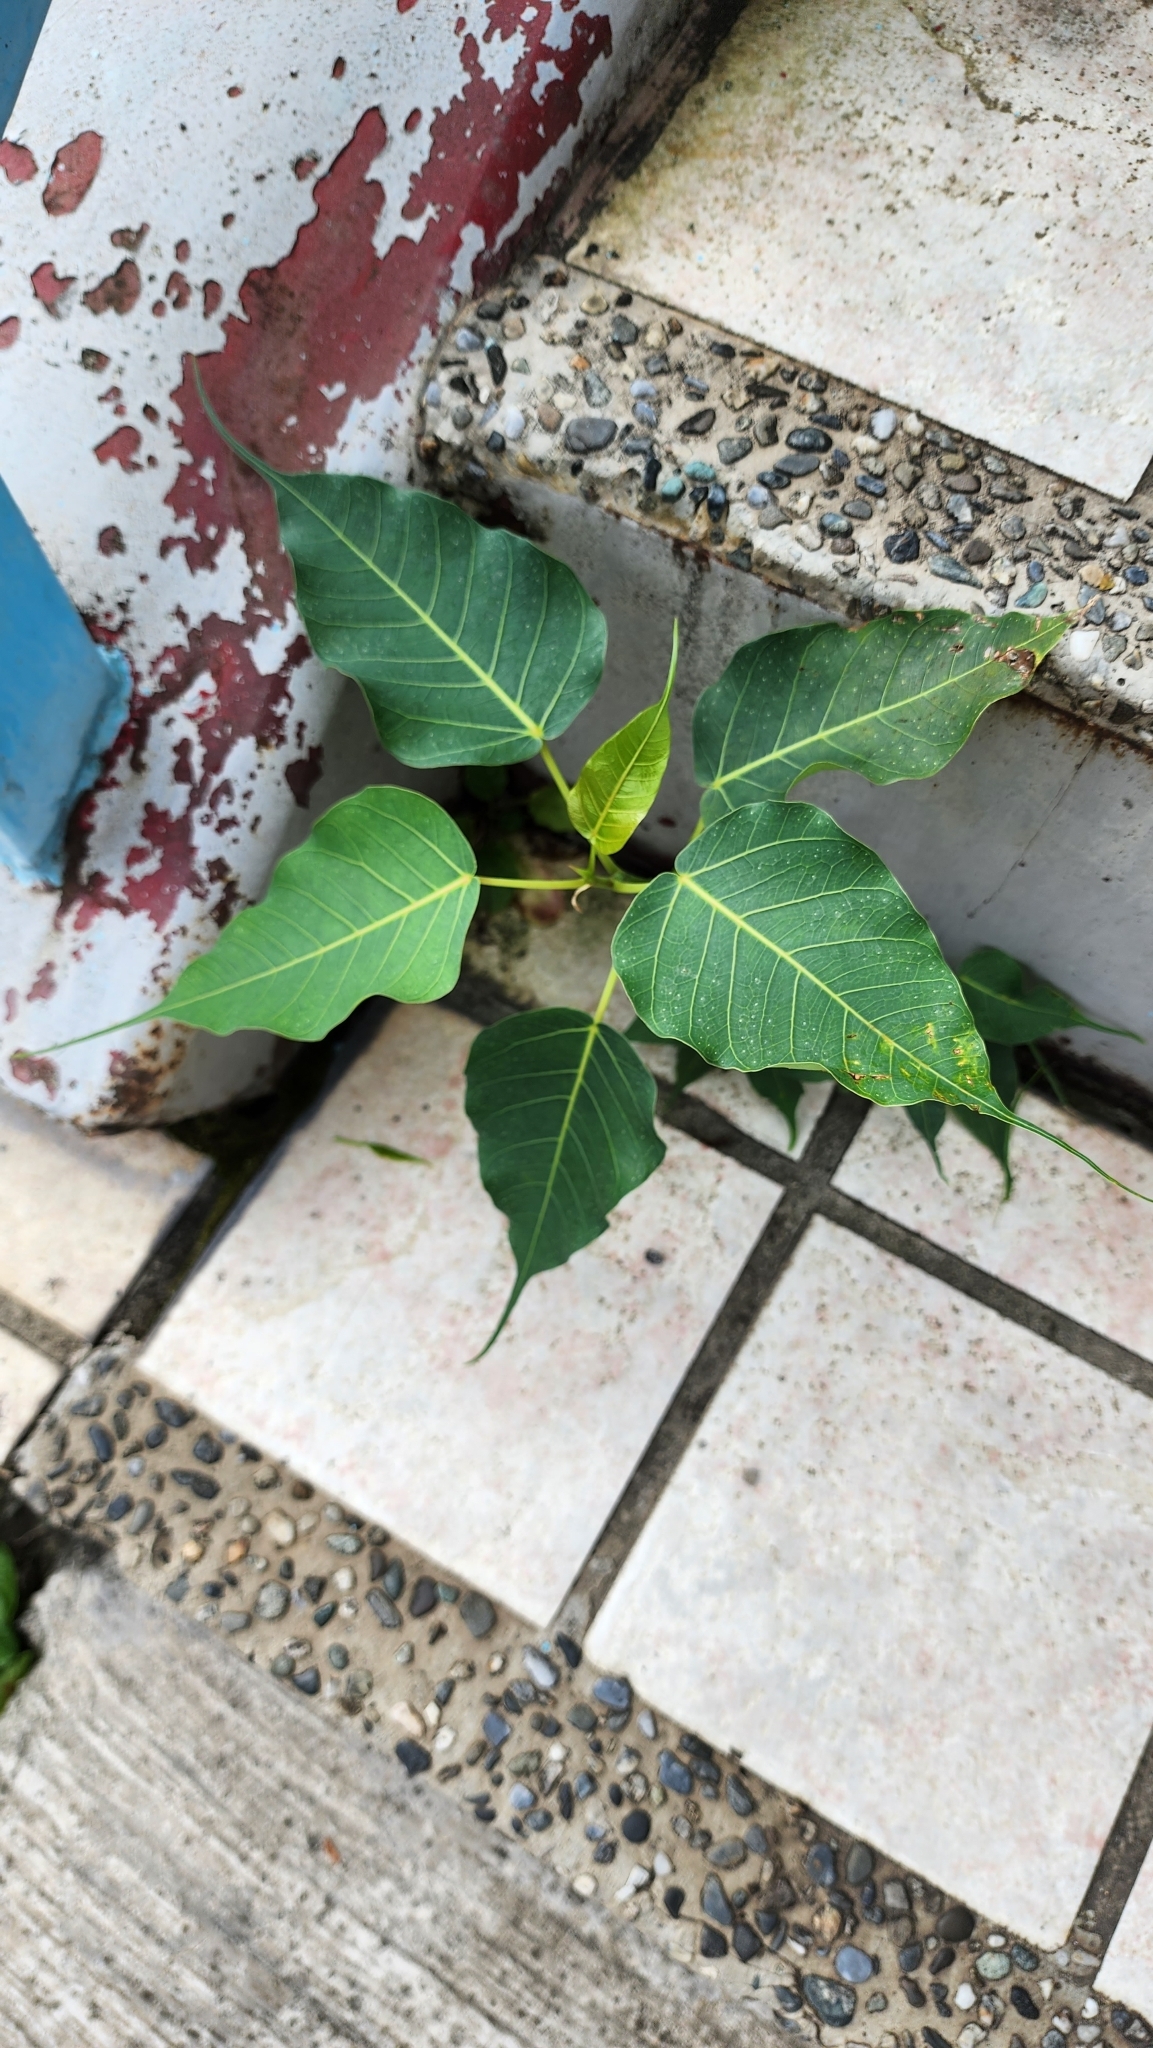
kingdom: Plantae
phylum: Tracheophyta
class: Magnoliopsida
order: Rosales
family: Moraceae
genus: Ficus
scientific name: Ficus religiosa
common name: Bodhi tree
